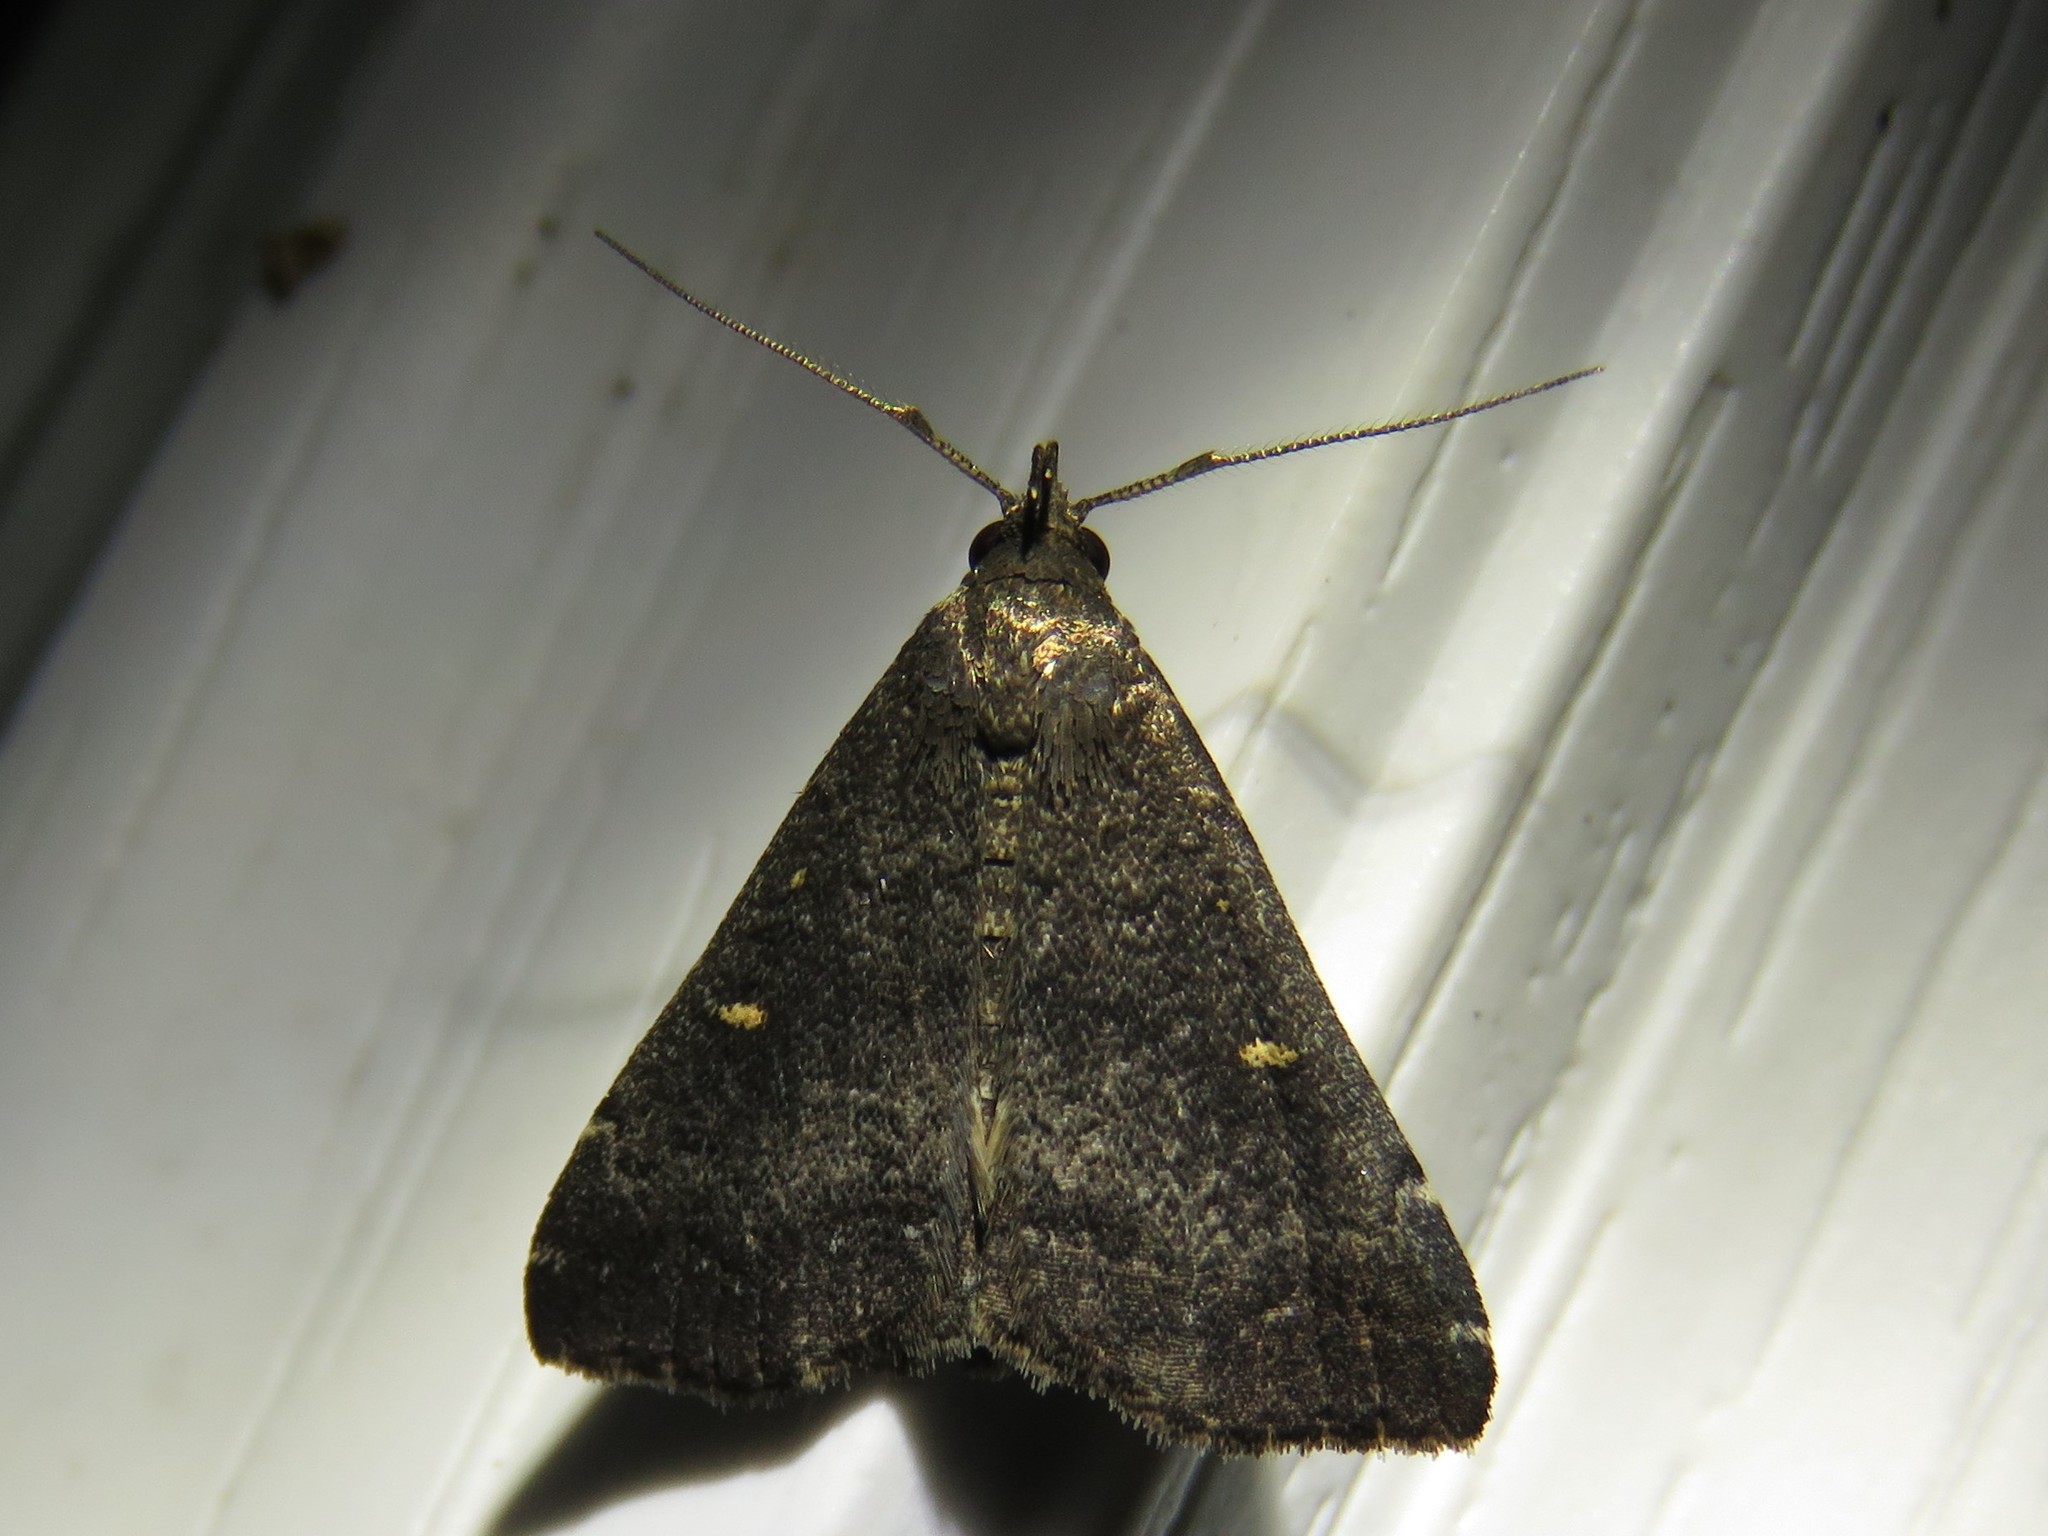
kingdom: Animalia
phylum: Arthropoda
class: Insecta
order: Lepidoptera
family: Erebidae
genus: Tetanolita
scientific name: Tetanolita mynesalis
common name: Smoky tetanolita moth
